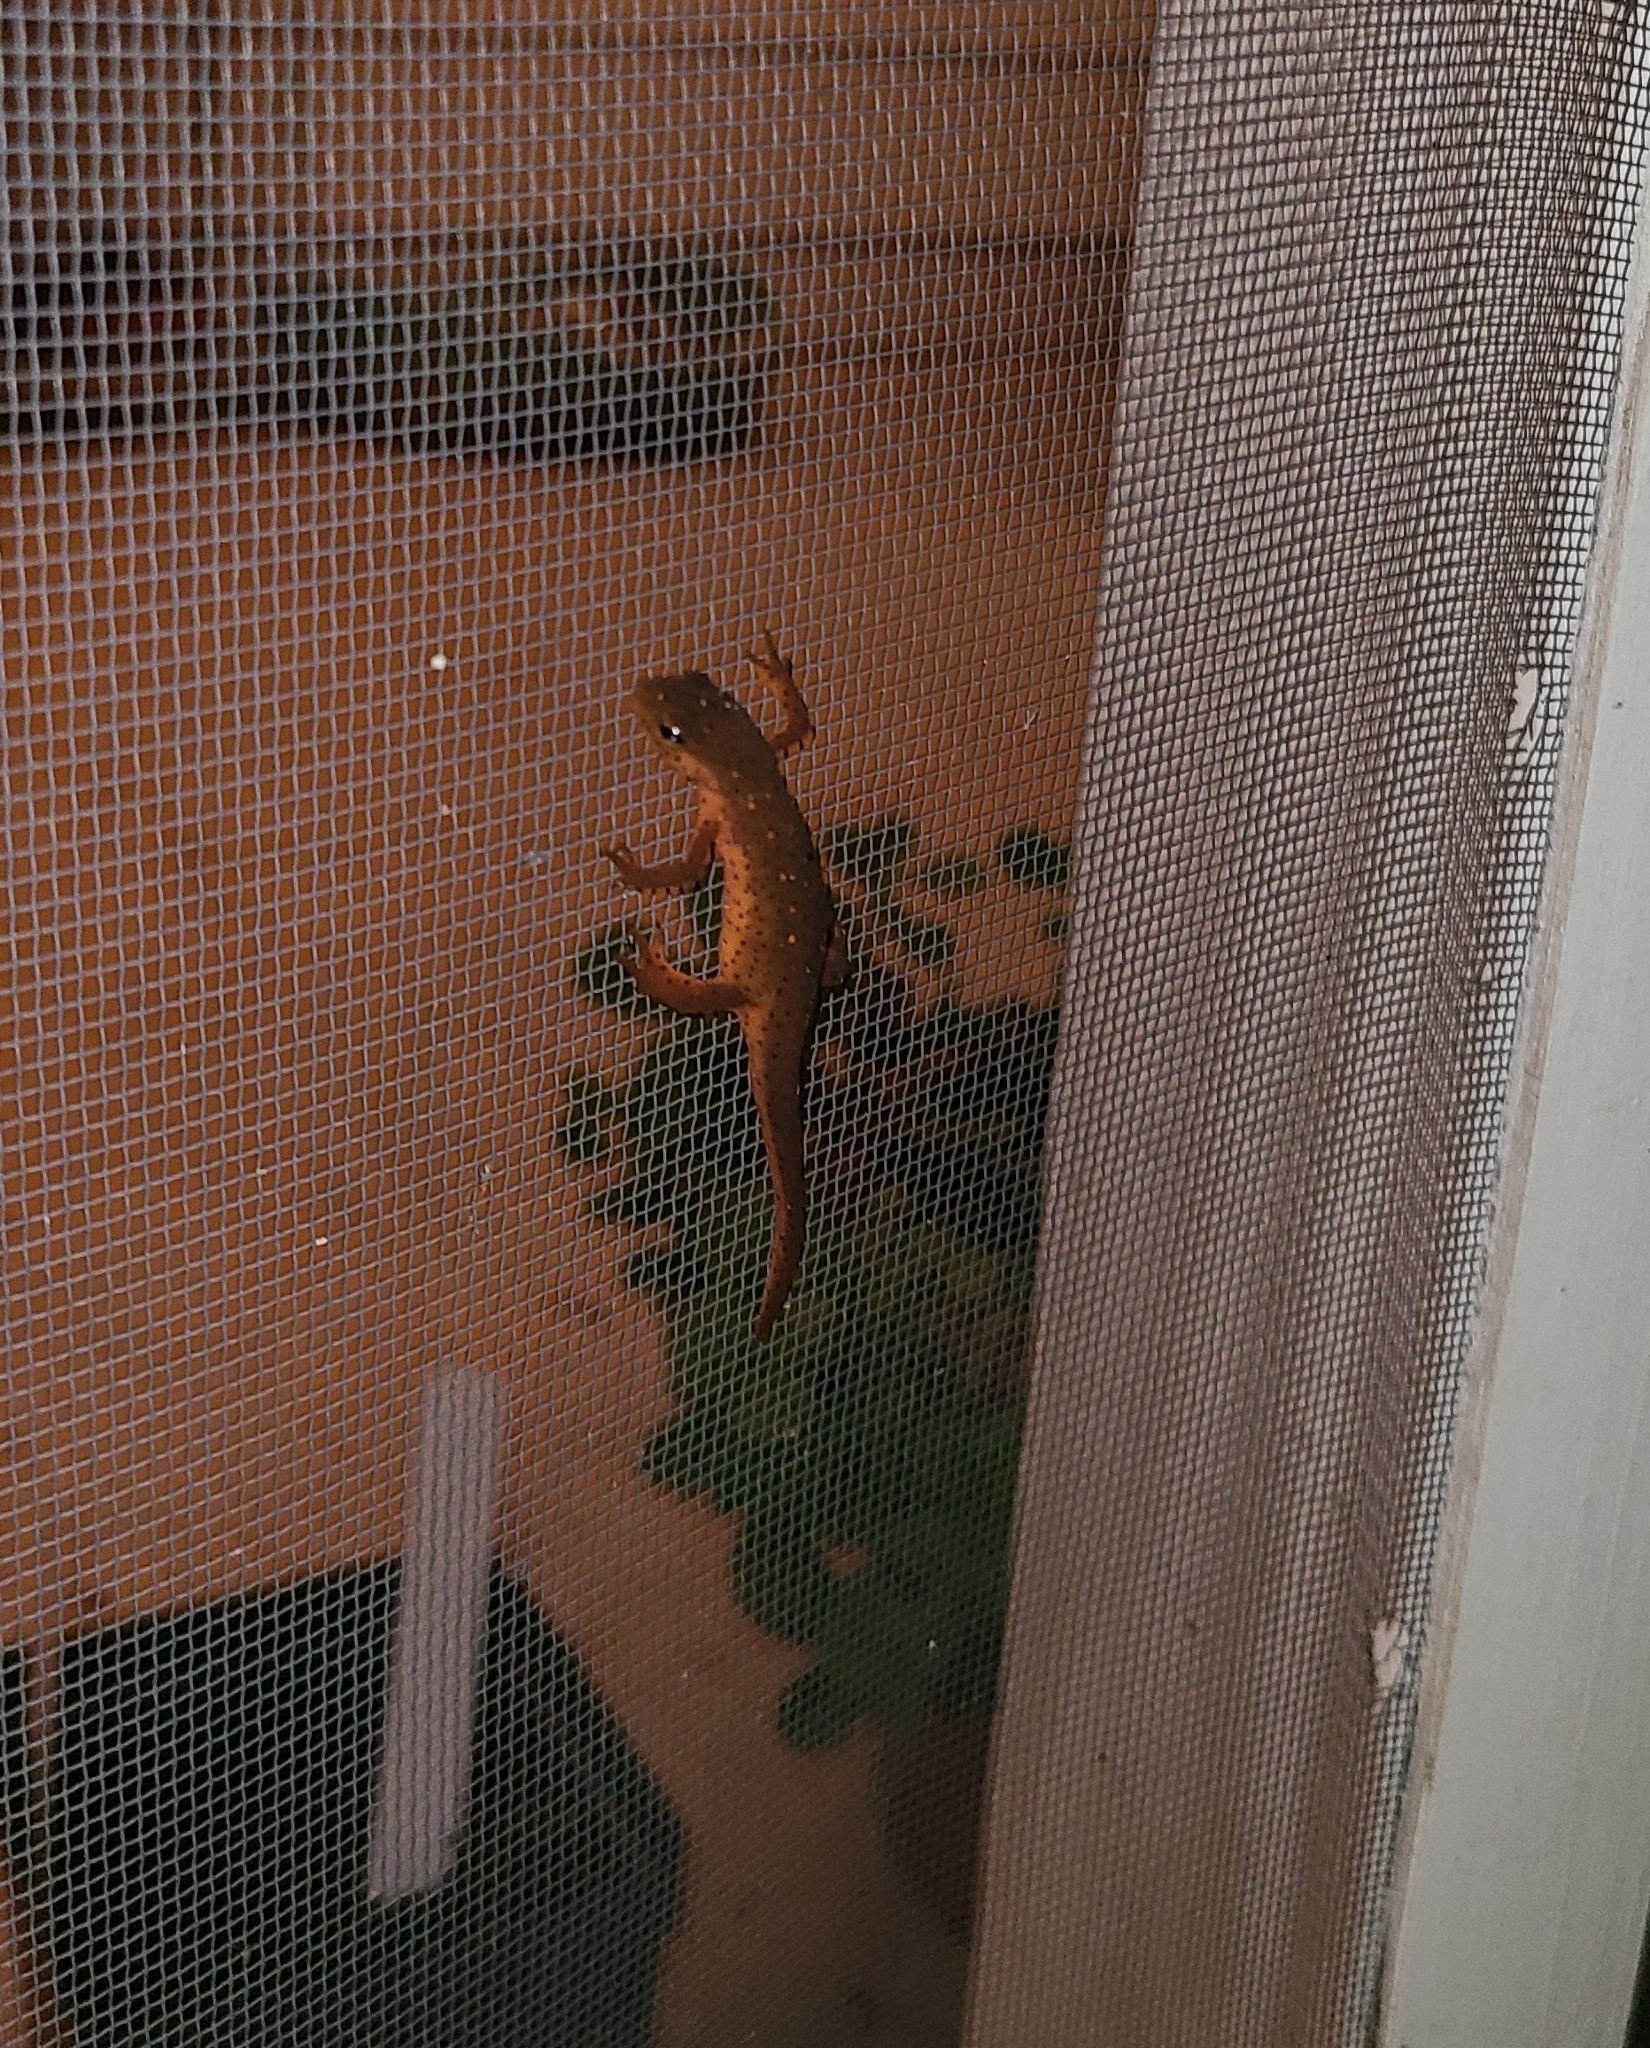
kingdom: Animalia
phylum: Chordata
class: Amphibia
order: Caudata
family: Salamandridae
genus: Notophthalmus
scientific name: Notophthalmus viridescens
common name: Eastern newt
